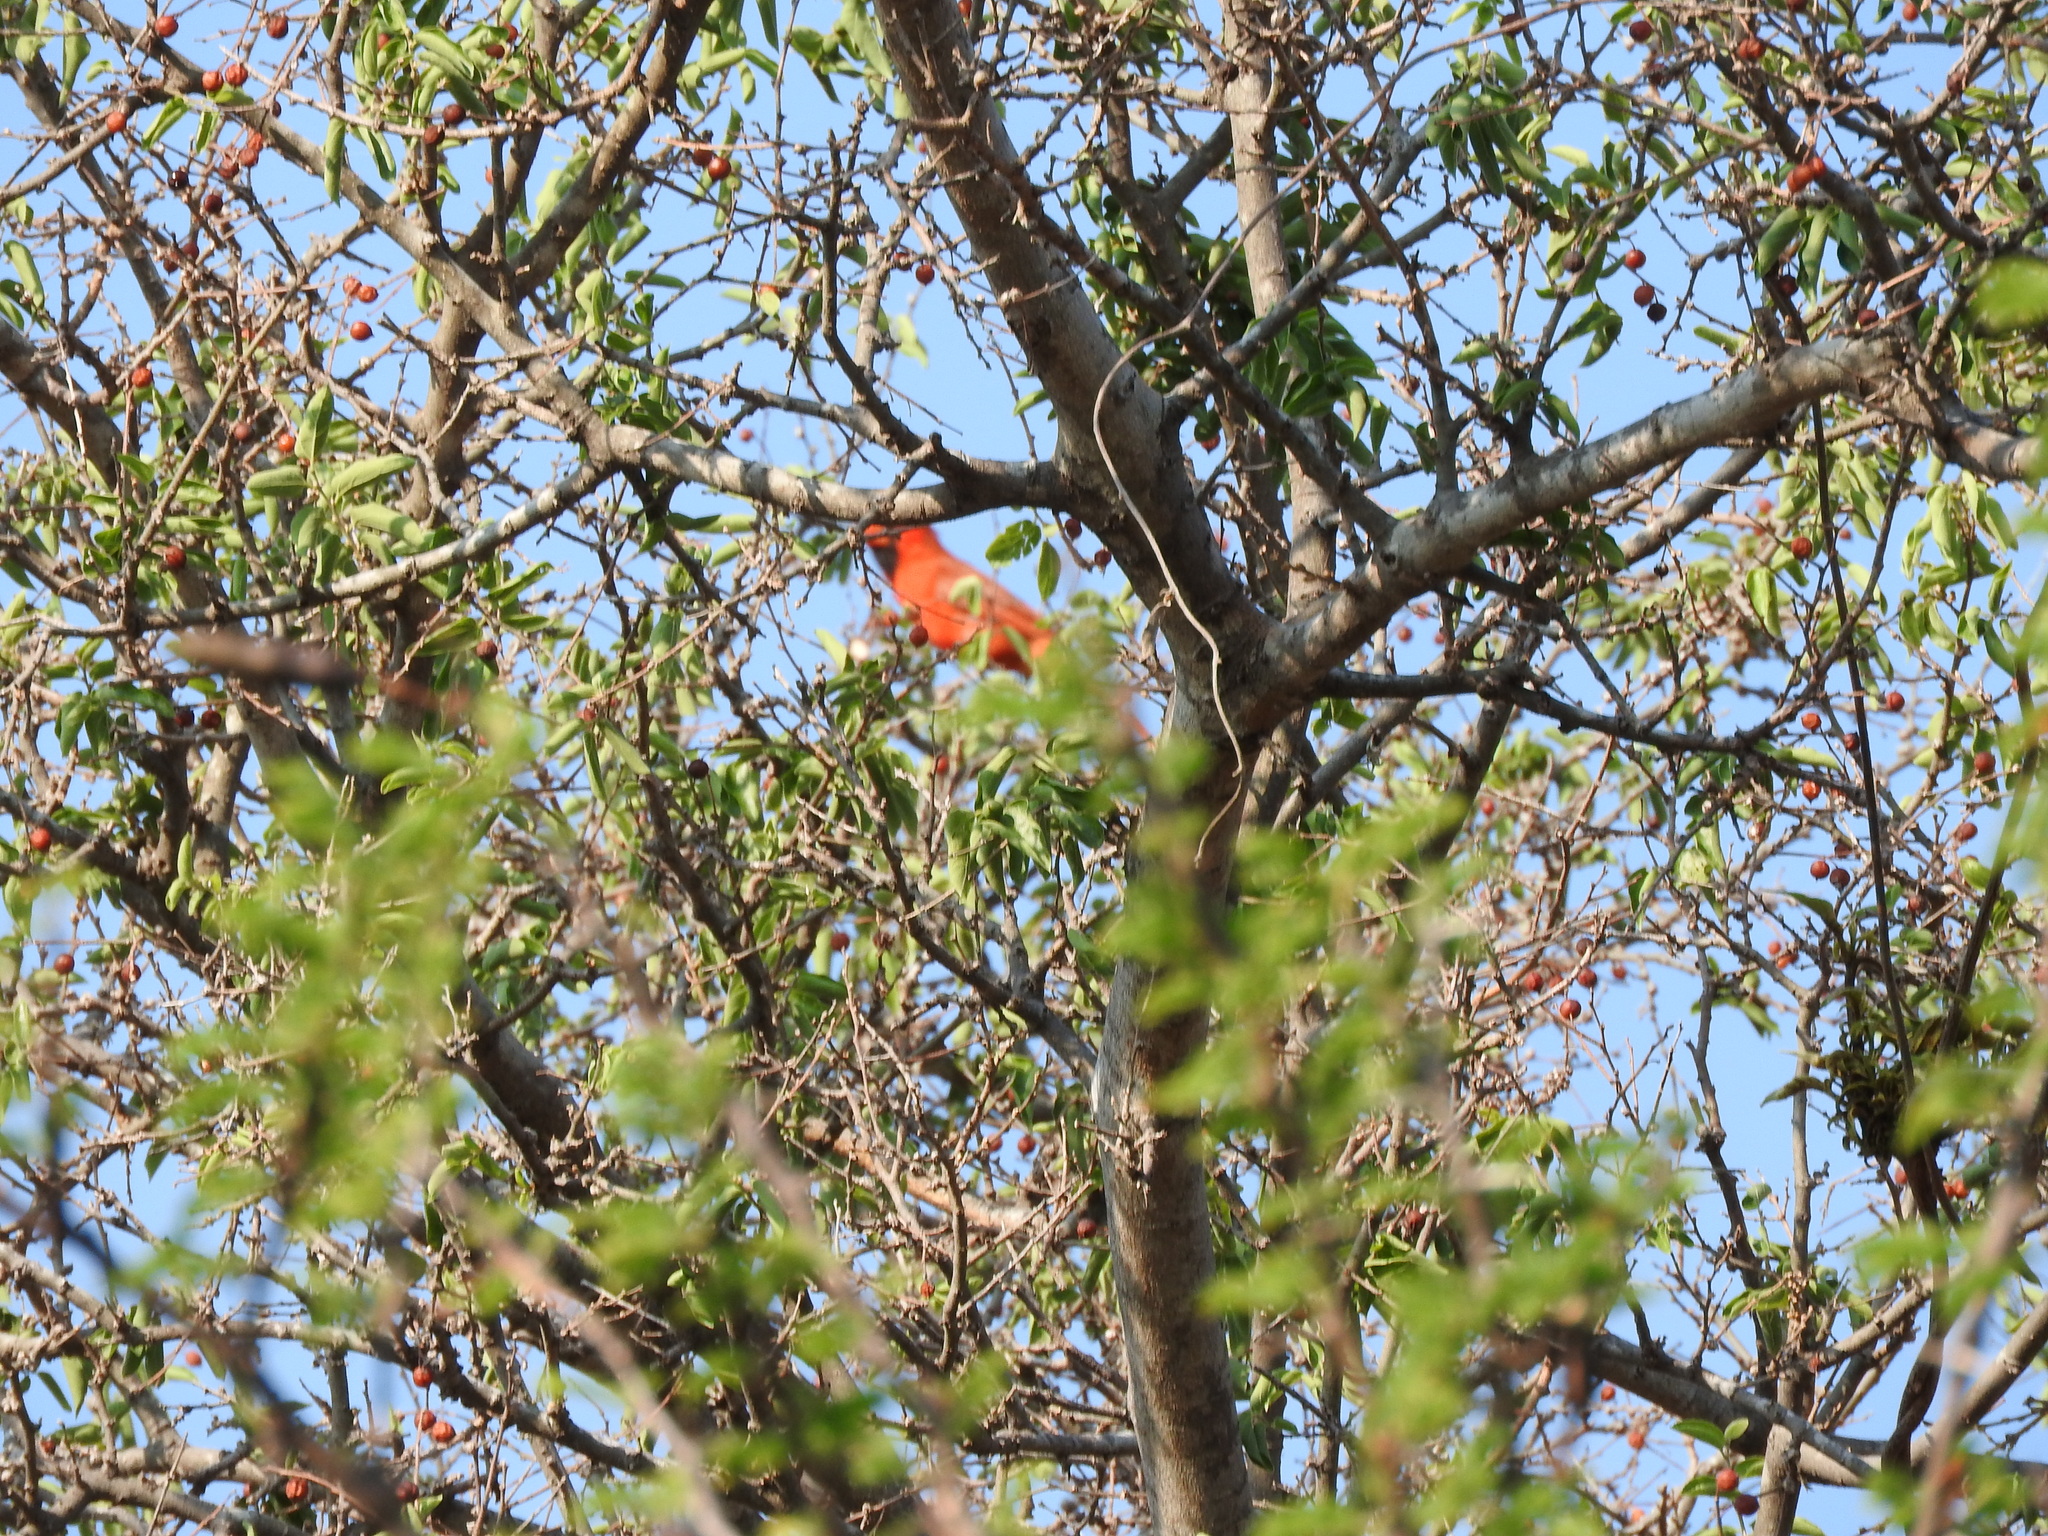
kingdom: Animalia
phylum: Chordata
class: Aves
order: Passeriformes
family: Cardinalidae
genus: Cardinalis
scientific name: Cardinalis cardinalis
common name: Northern cardinal
